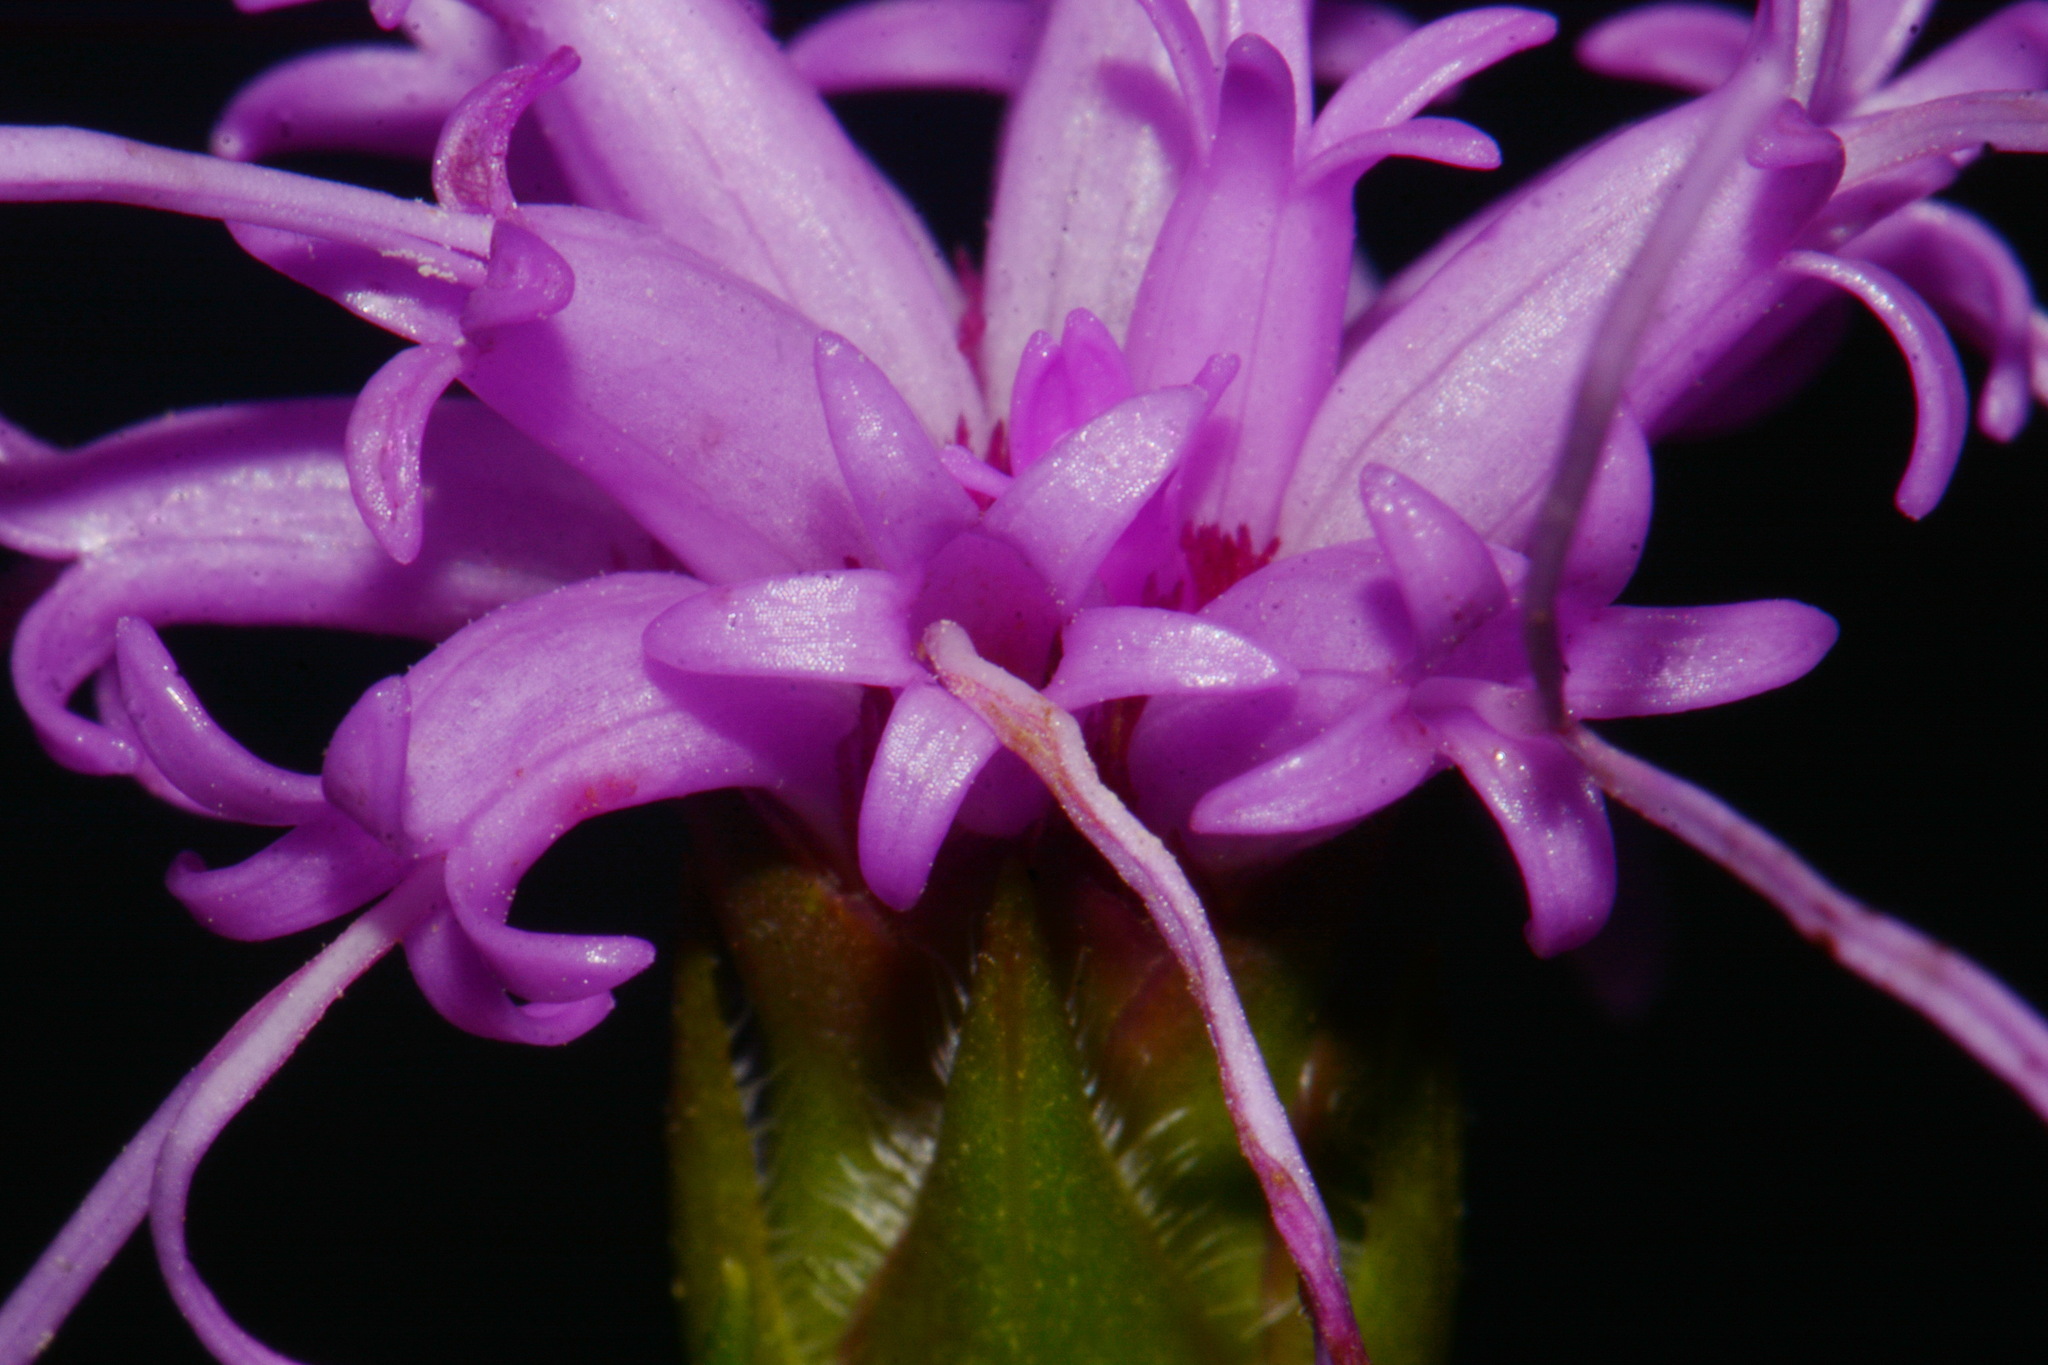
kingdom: Plantae
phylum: Tracheophyta
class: Magnoliopsida
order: Asterales
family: Asteraceae
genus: Liatris
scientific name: Liatris oligocephala
